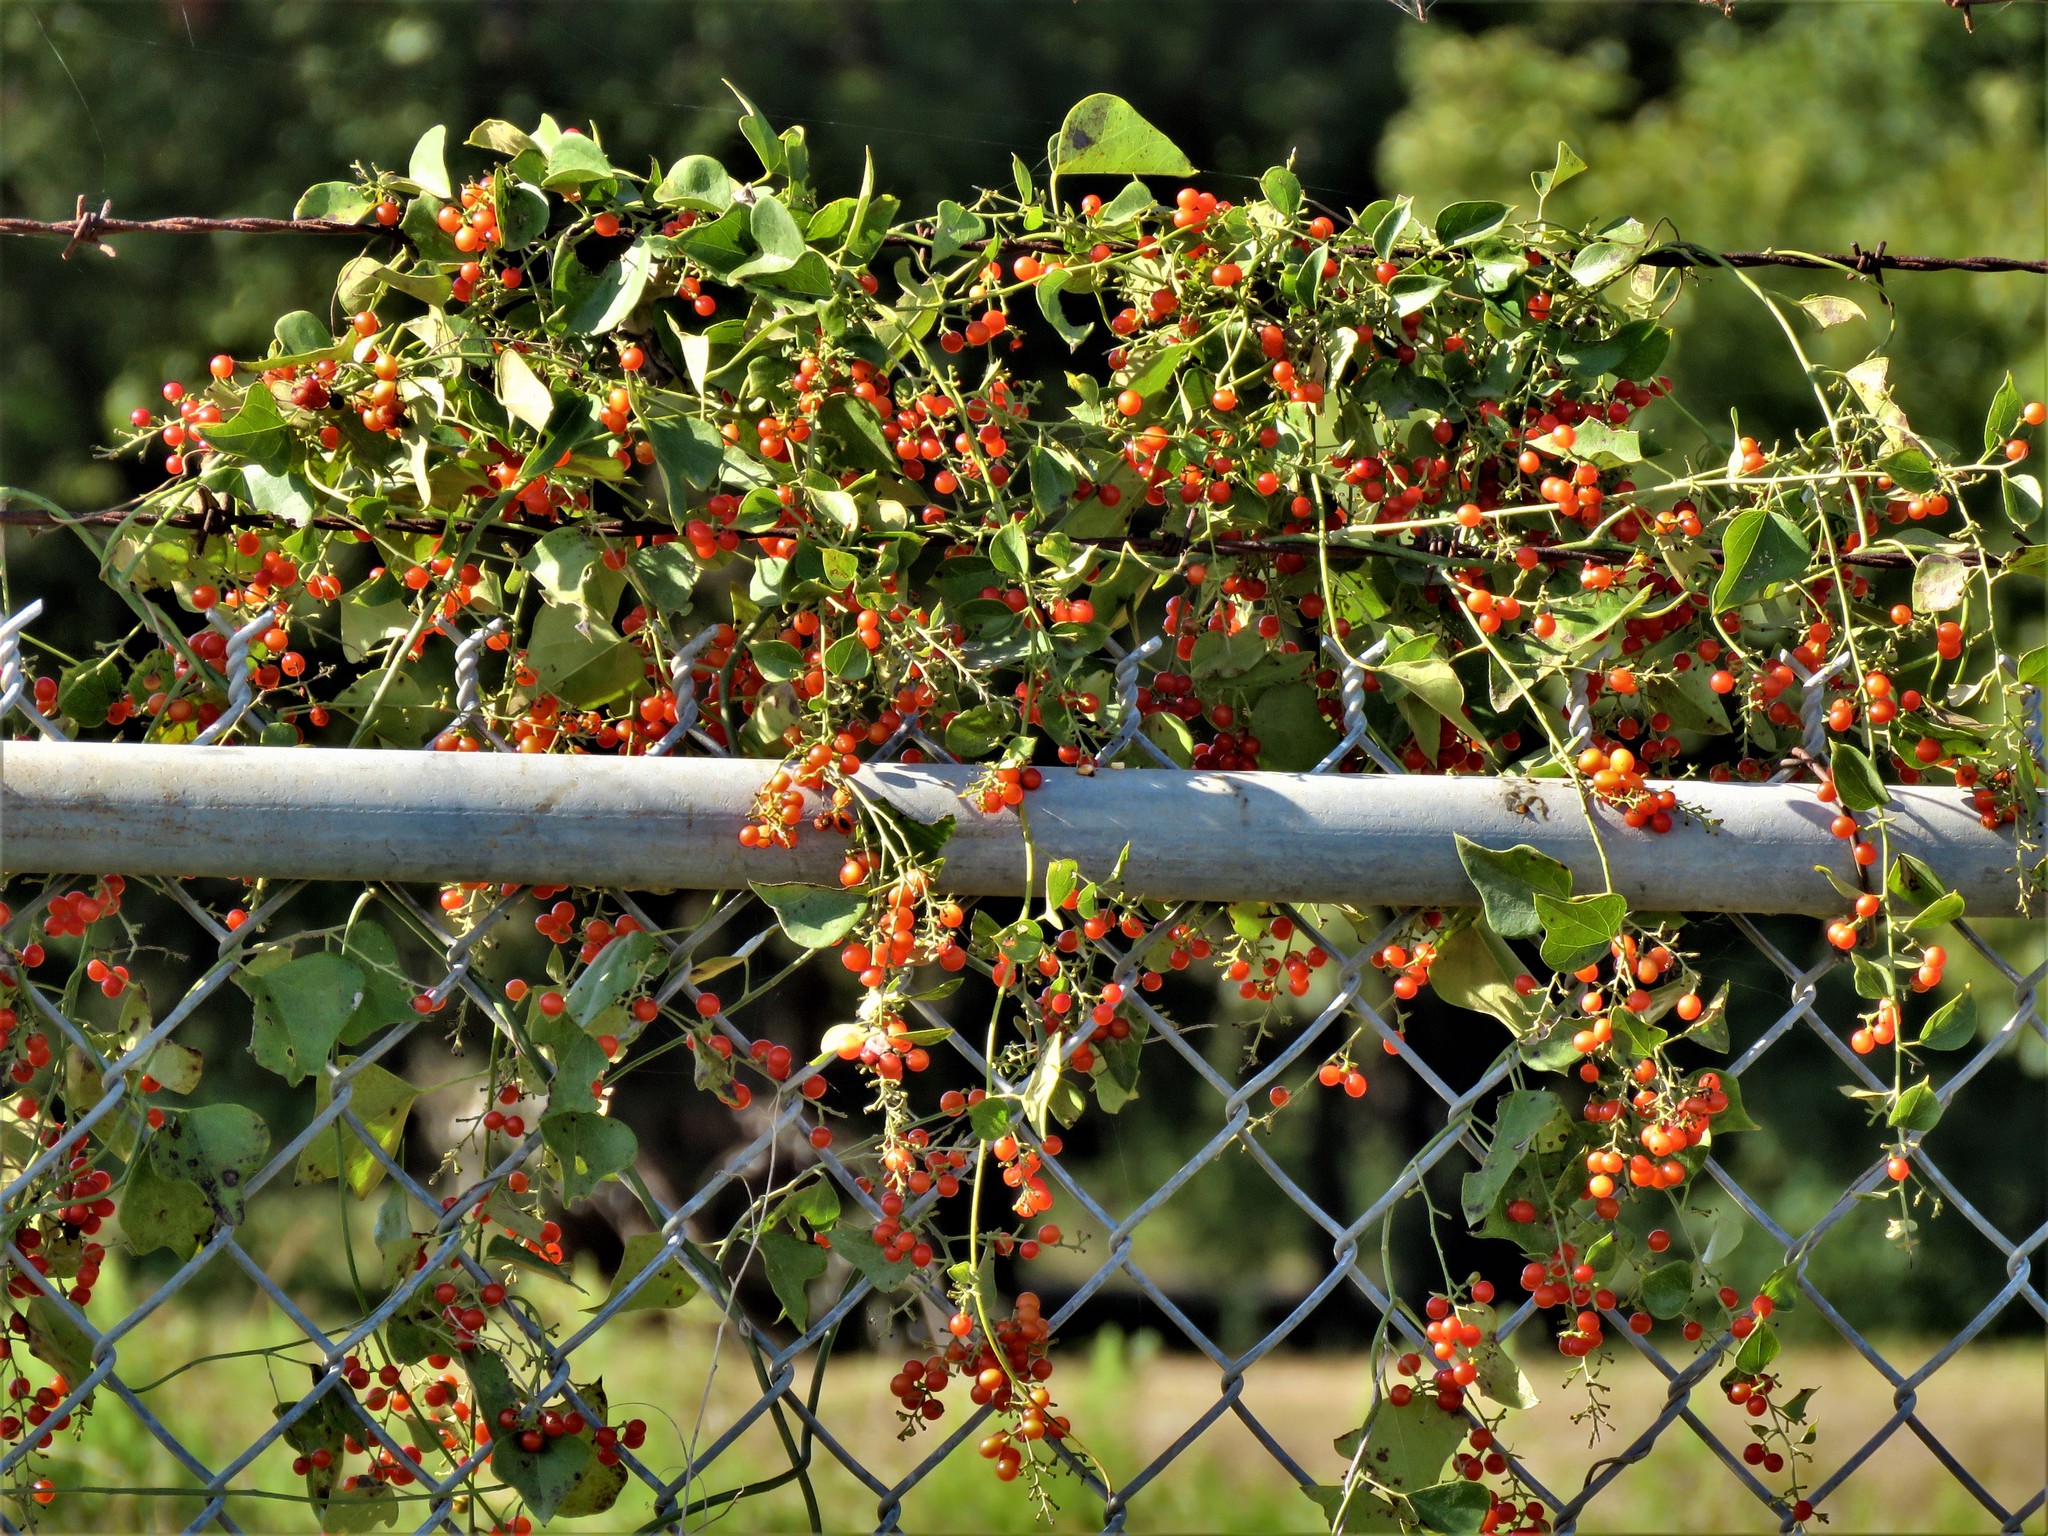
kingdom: Plantae
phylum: Tracheophyta
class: Magnoliopsida
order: Ranunculales
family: Menispermaceae
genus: Cocculus
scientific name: Cocculus carolinus
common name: Carolina moonseed
